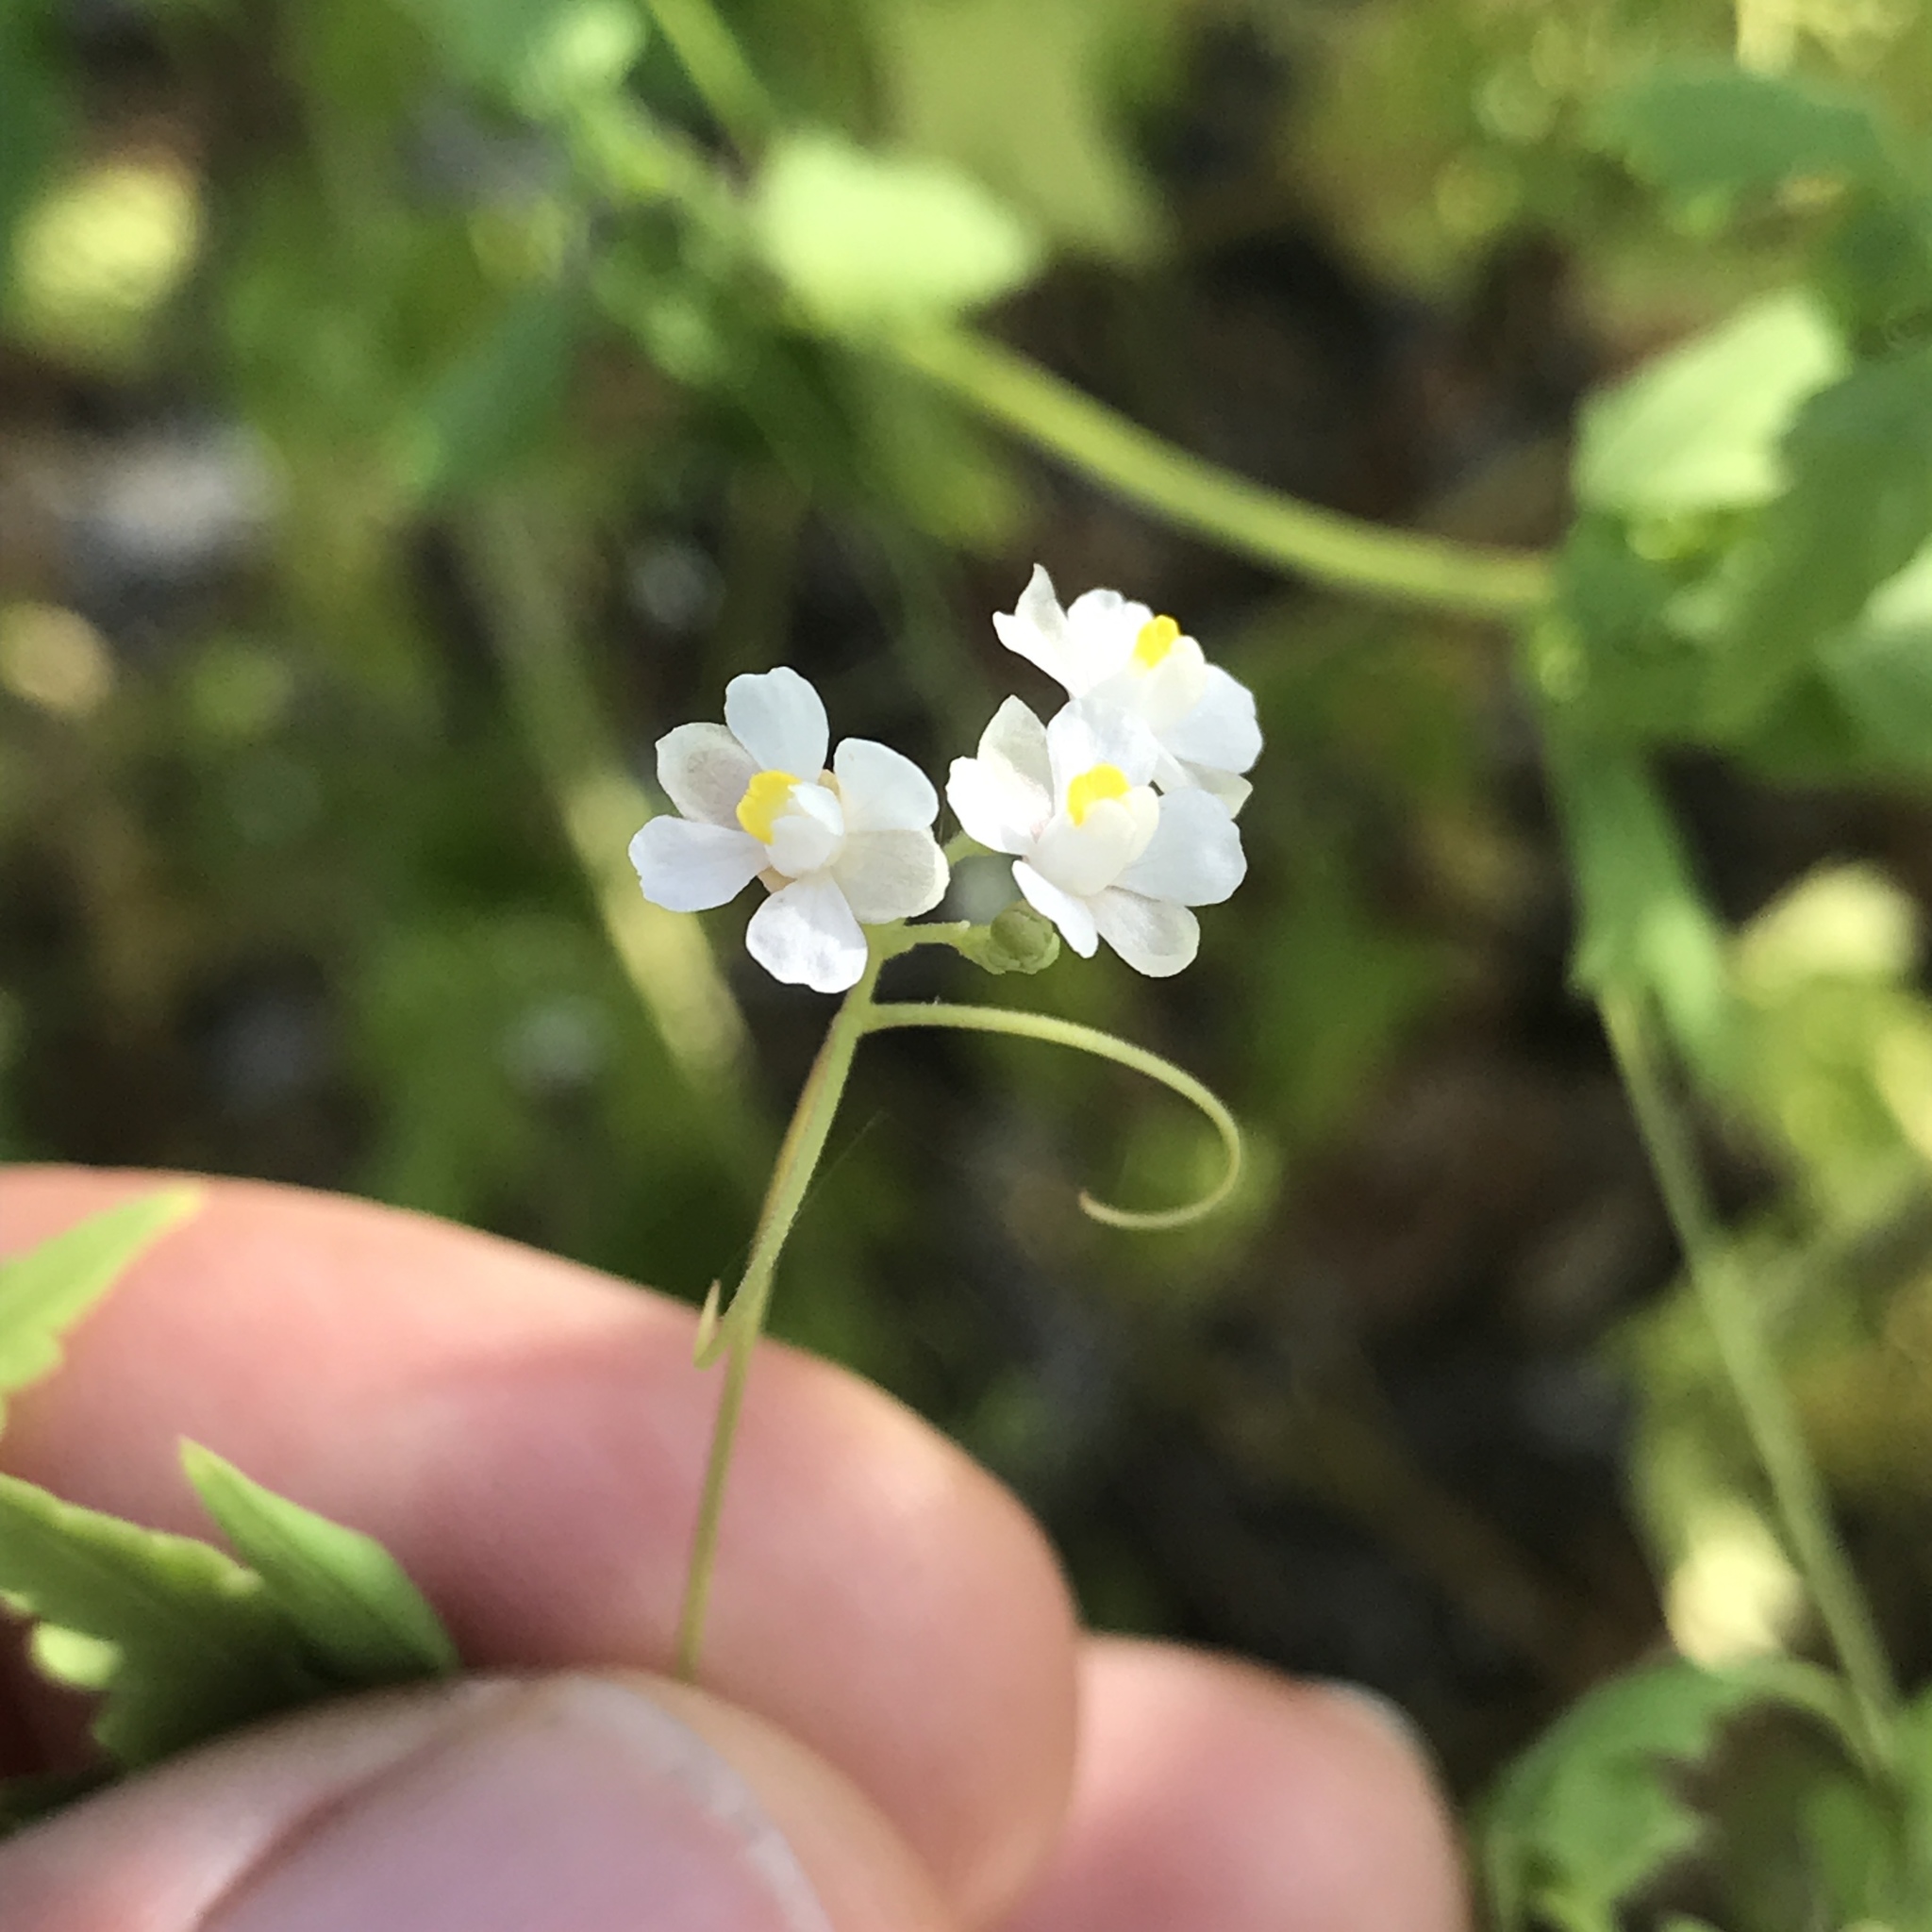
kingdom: Plantae
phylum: Tracheophyta
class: Magnoliopsida
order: Sapindales
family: Sapindaceae
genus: Cardiospermum
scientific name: Cardiospermum halicacabum
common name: Balloon vine
